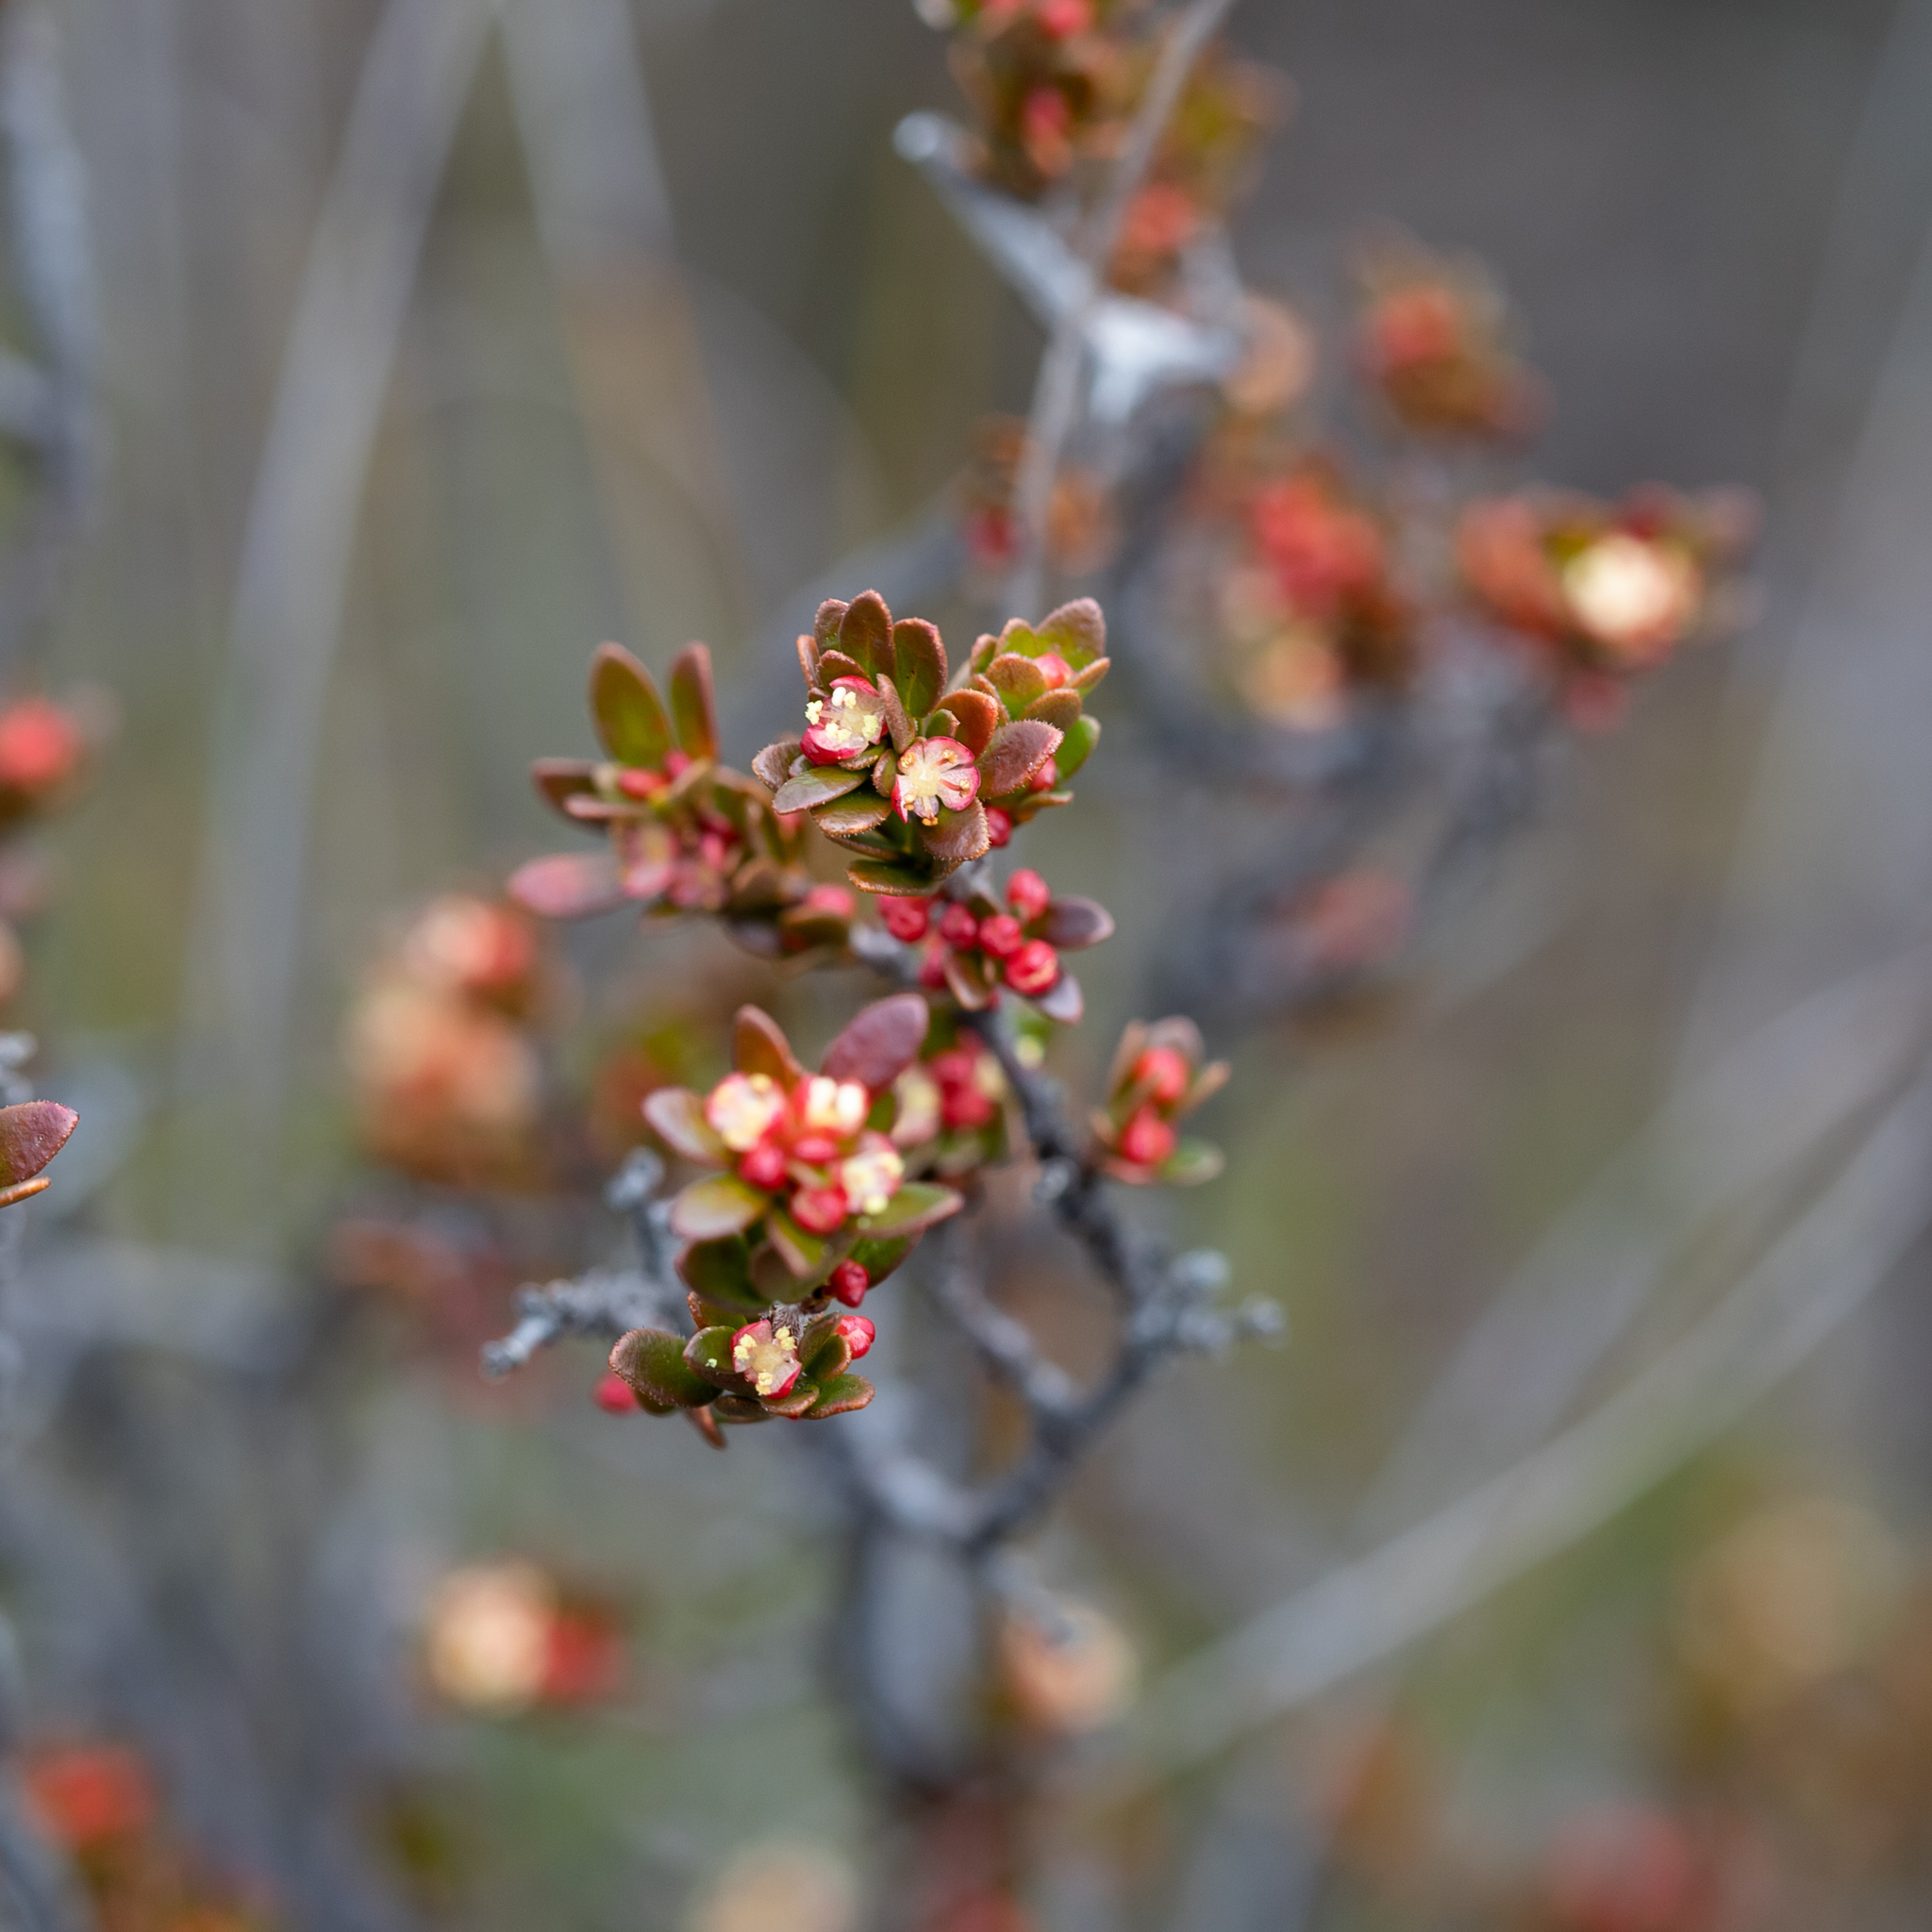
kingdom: Plantae
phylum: Tracheophyta
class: Magnoliopsida
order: Malpighiales
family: Picrodendraceae
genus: Micrantheum
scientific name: Micrantheum demissum
